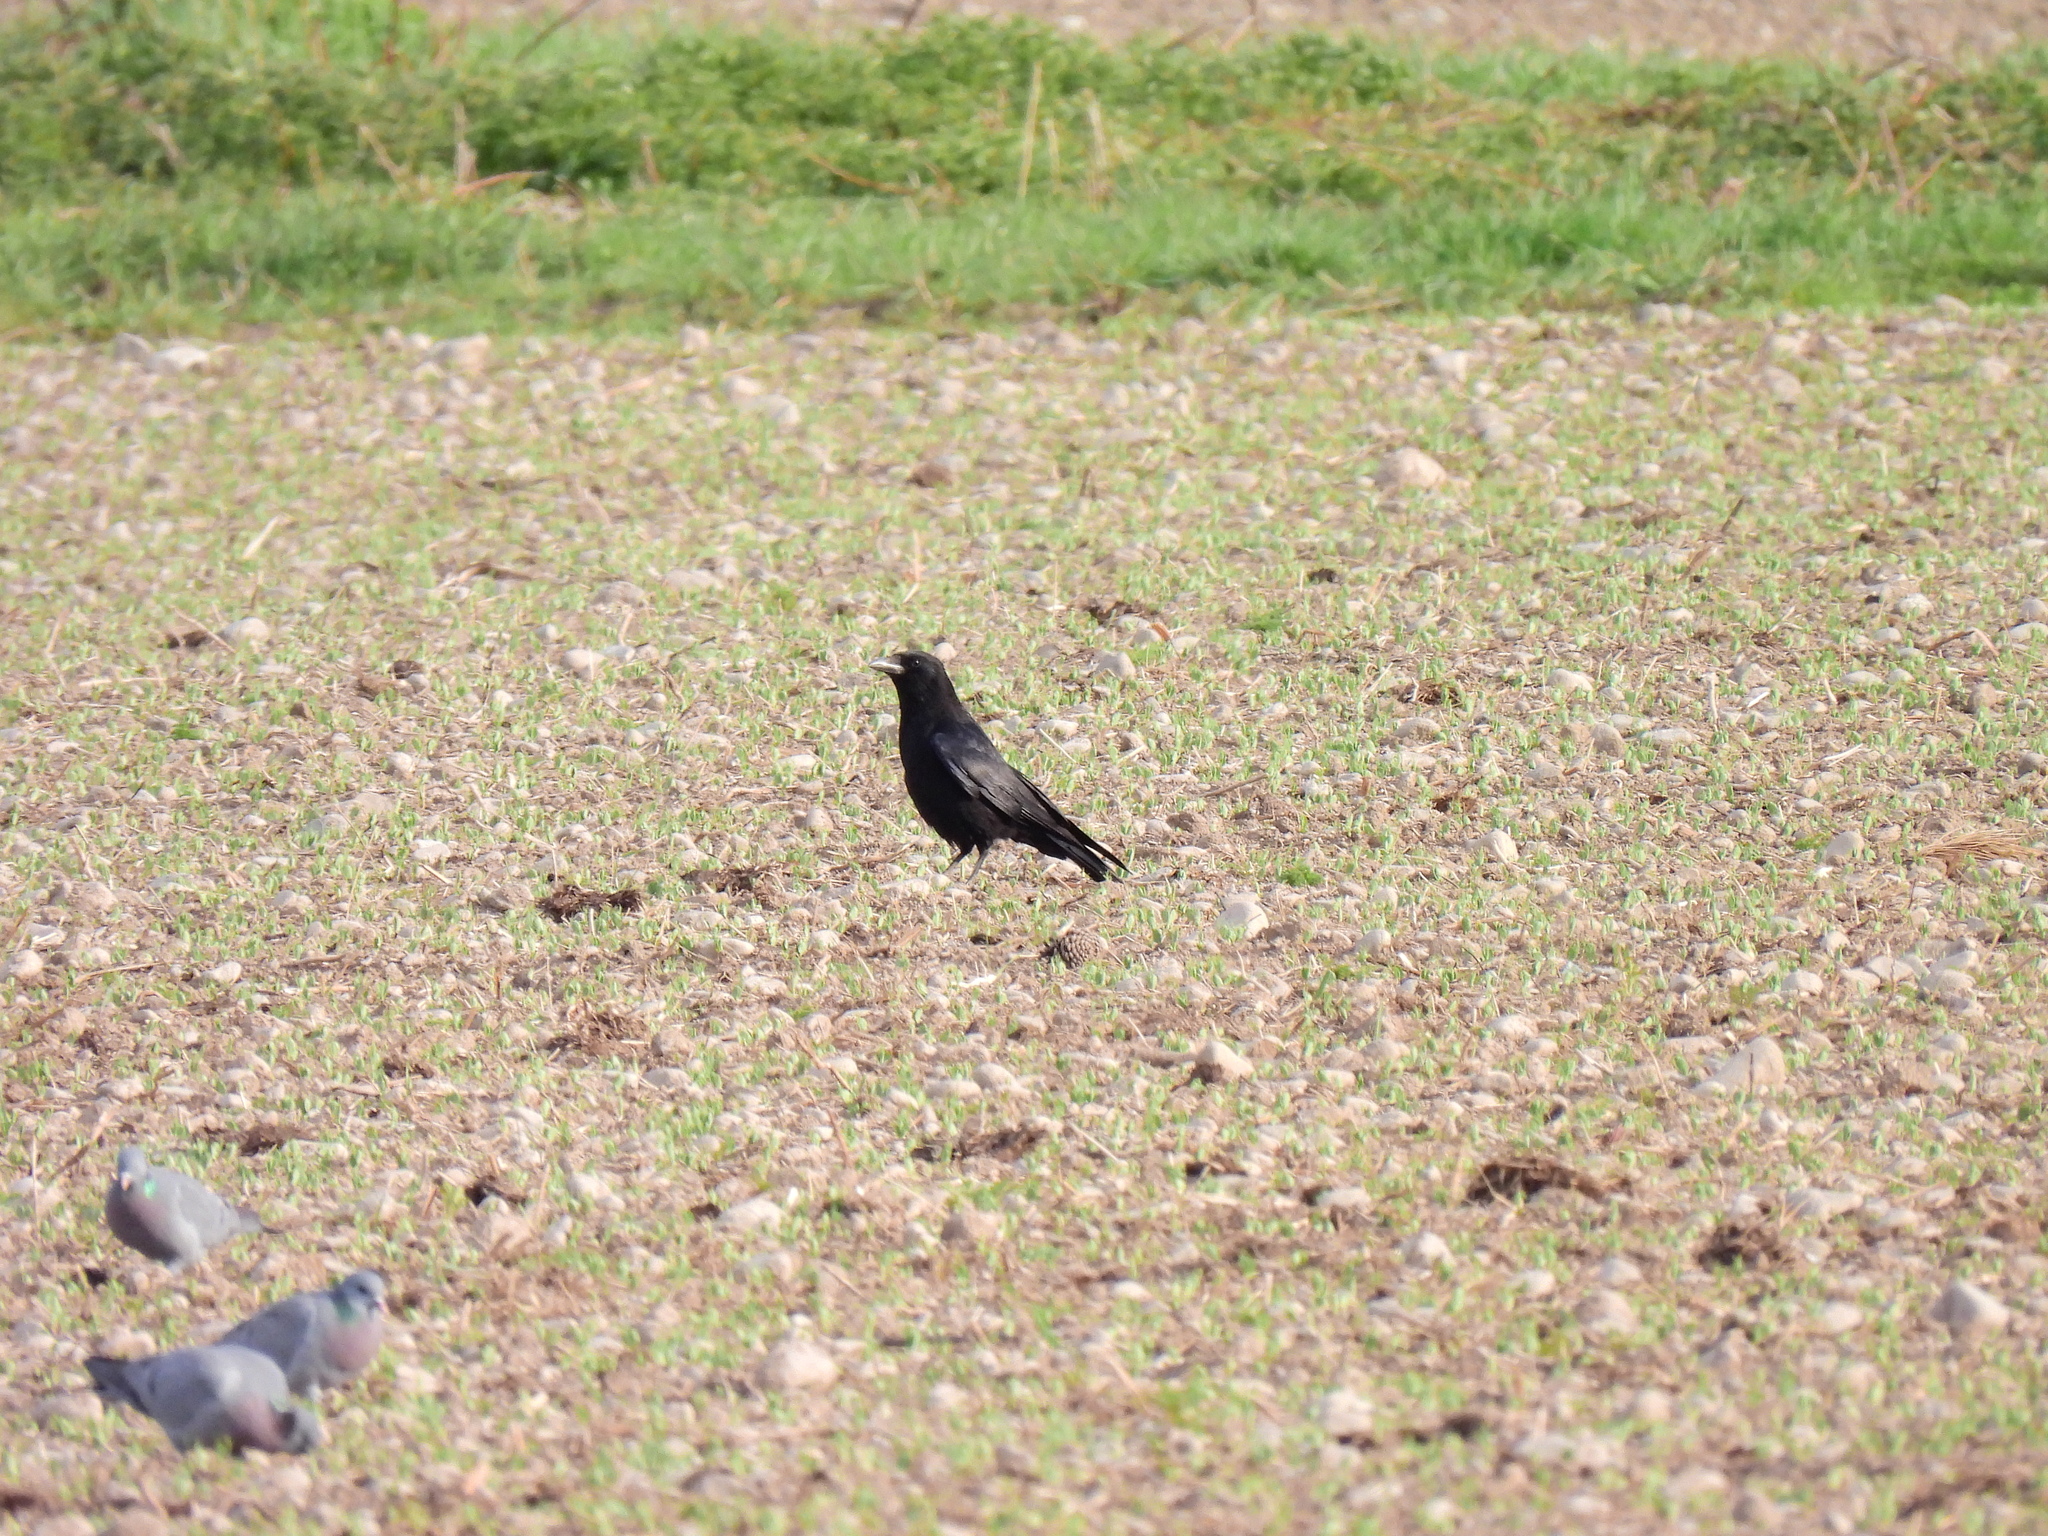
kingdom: Animalia
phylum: Chordata
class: Aves
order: Passeriformes
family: Corvidae
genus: Corvus
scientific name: Corvus corone
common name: Carrion crow
